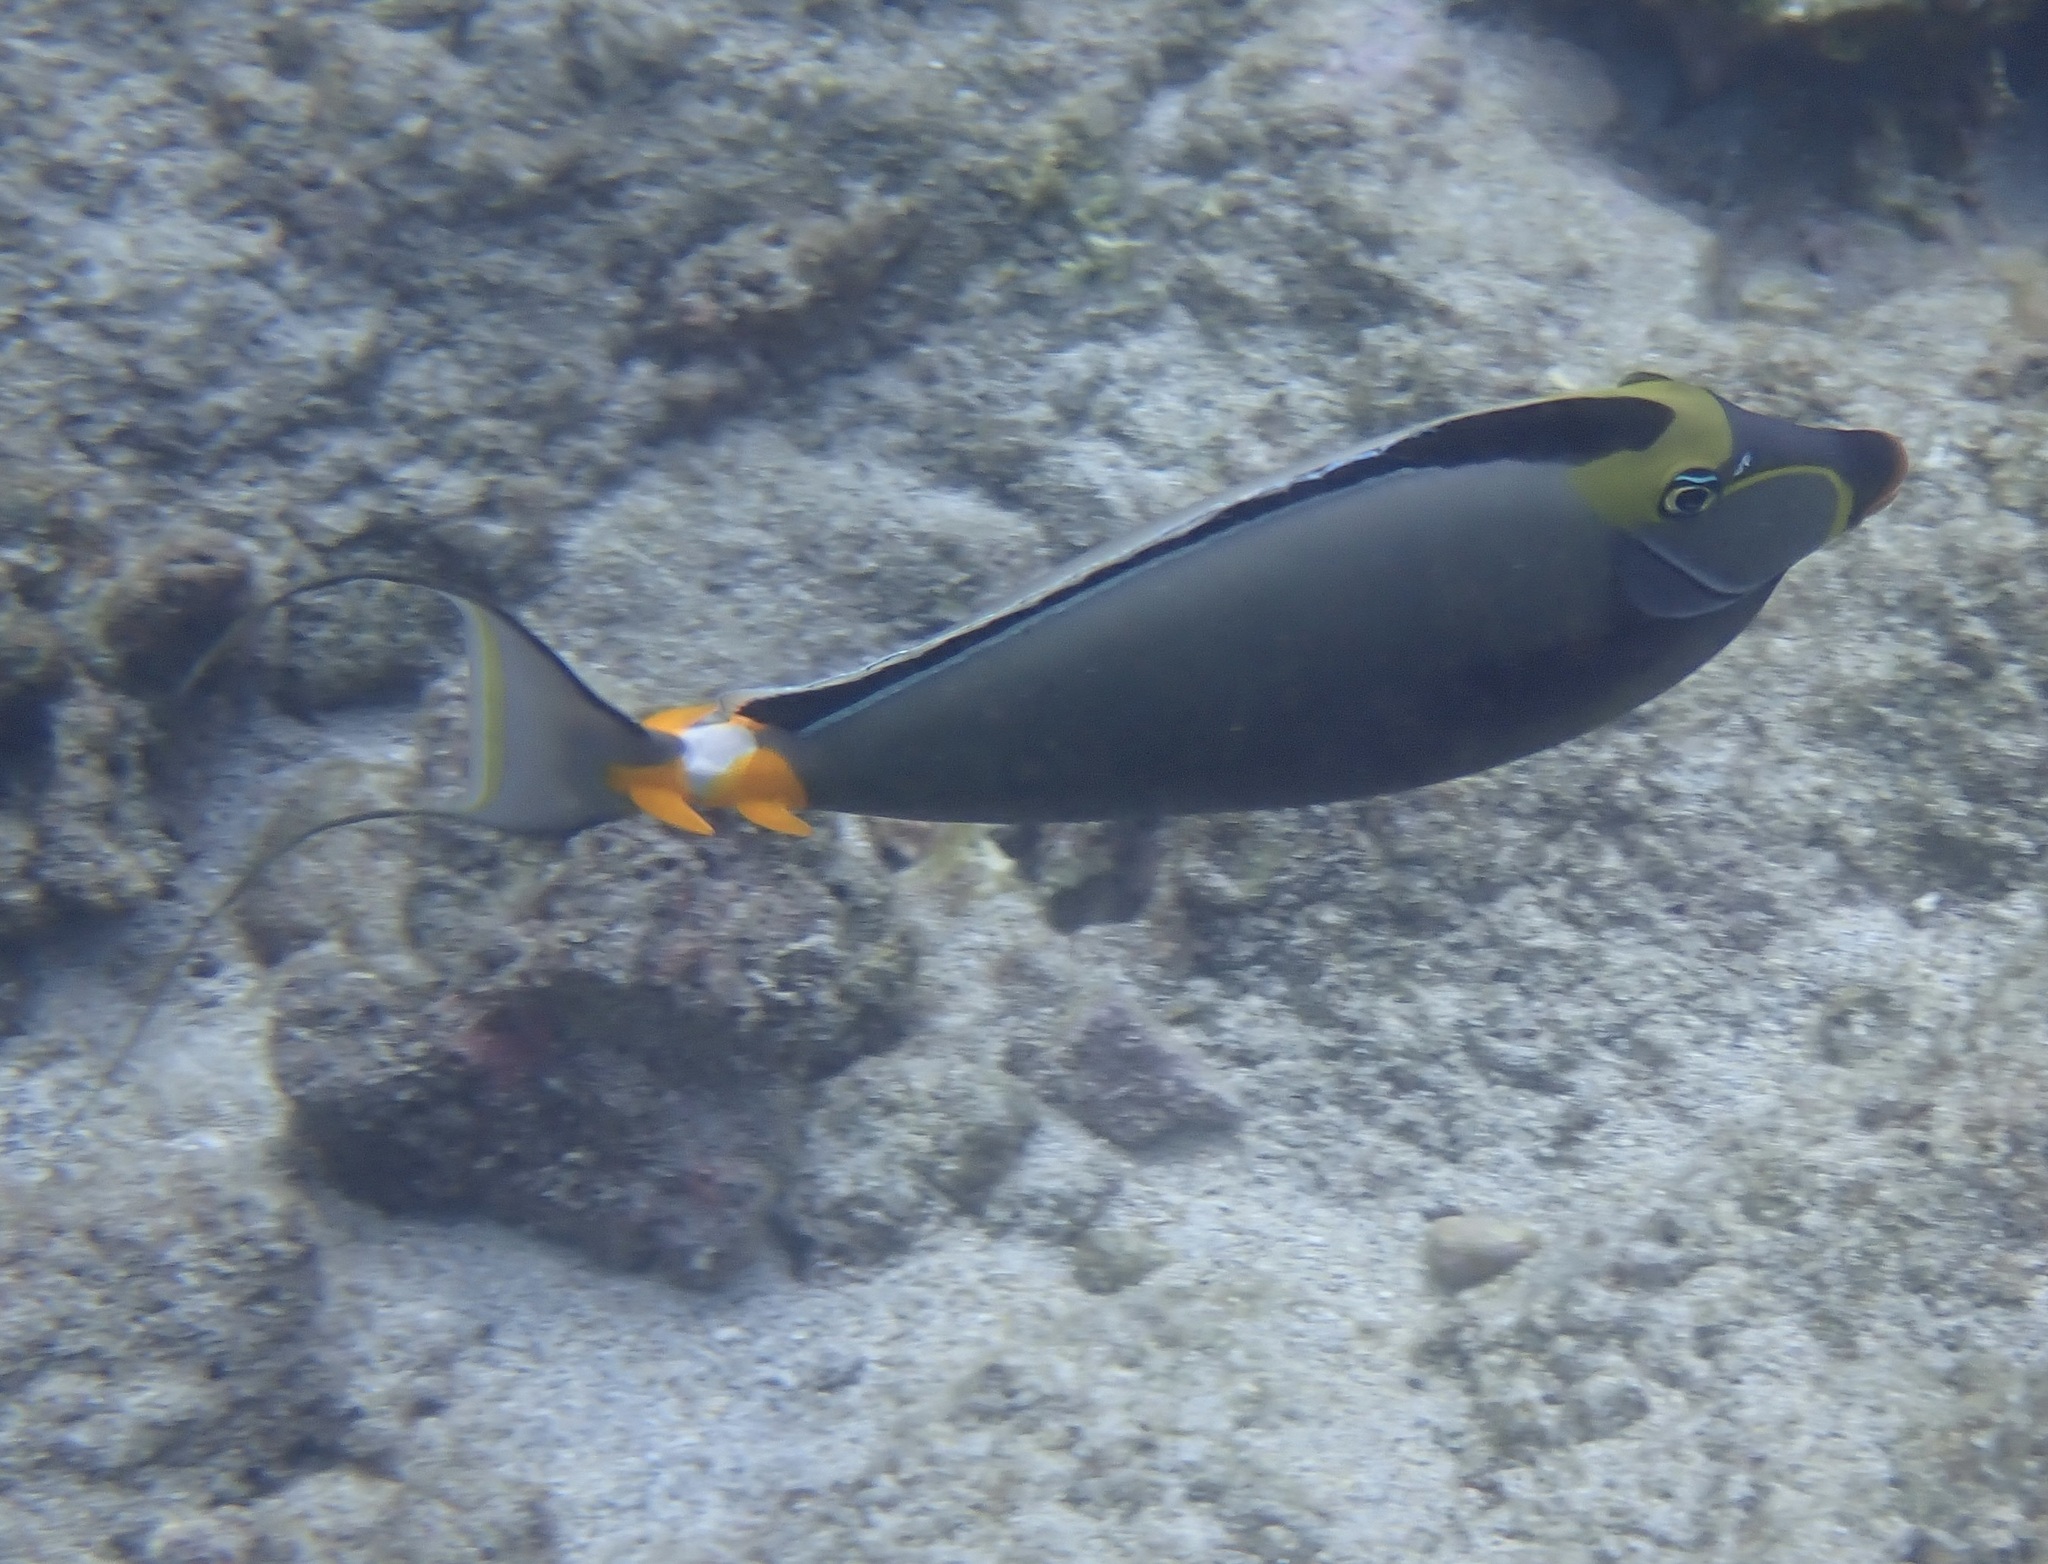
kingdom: Animalia
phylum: Chordata
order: Perciformes
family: Acanthuridae
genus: Naso
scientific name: Naso lituratus
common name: Orangespine unicornfish
